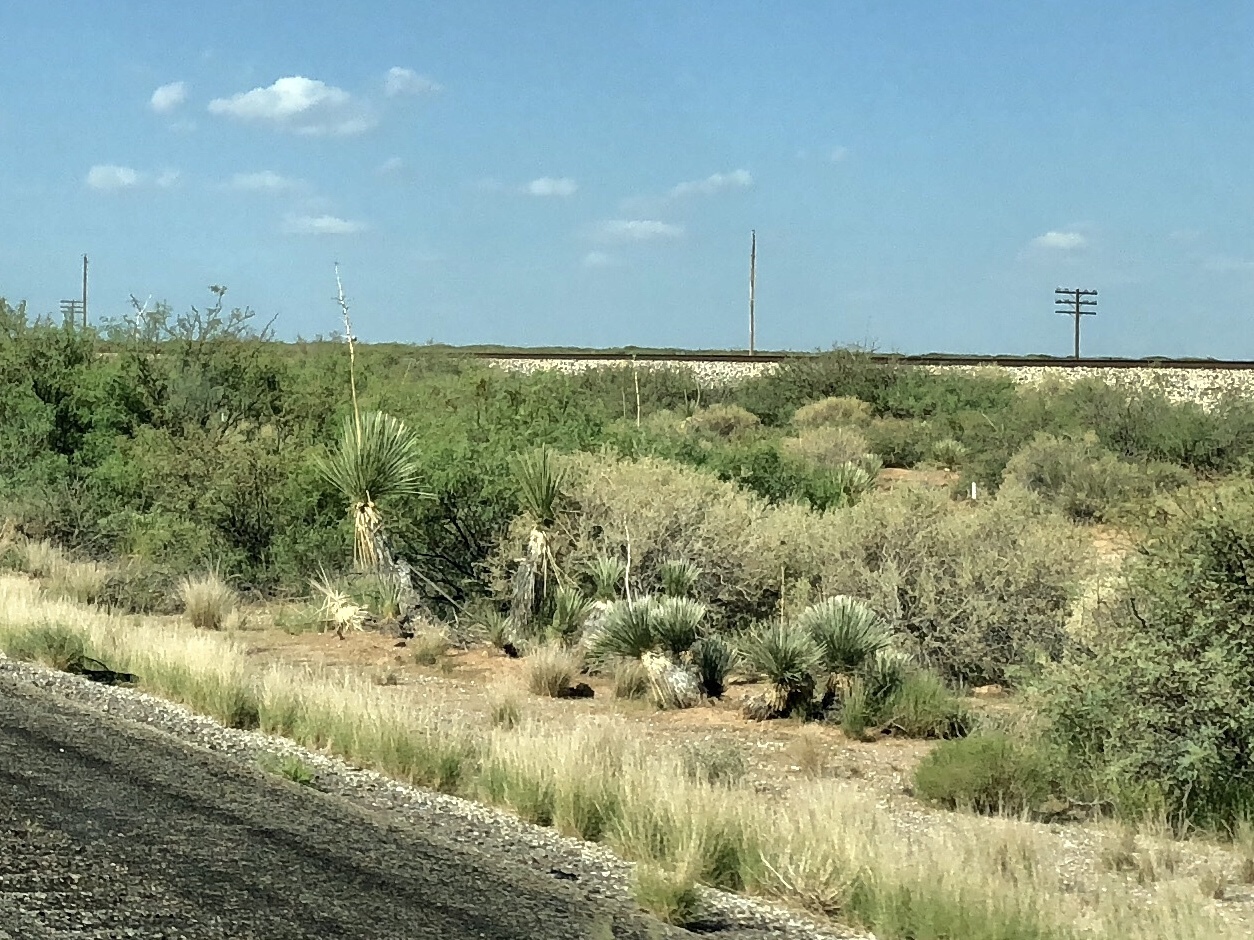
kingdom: Plantae
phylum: Tracheophyta
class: Liliopsida
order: Asparagales
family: Asparagaceae
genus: Yucca
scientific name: Yucca elata
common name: Palmella
